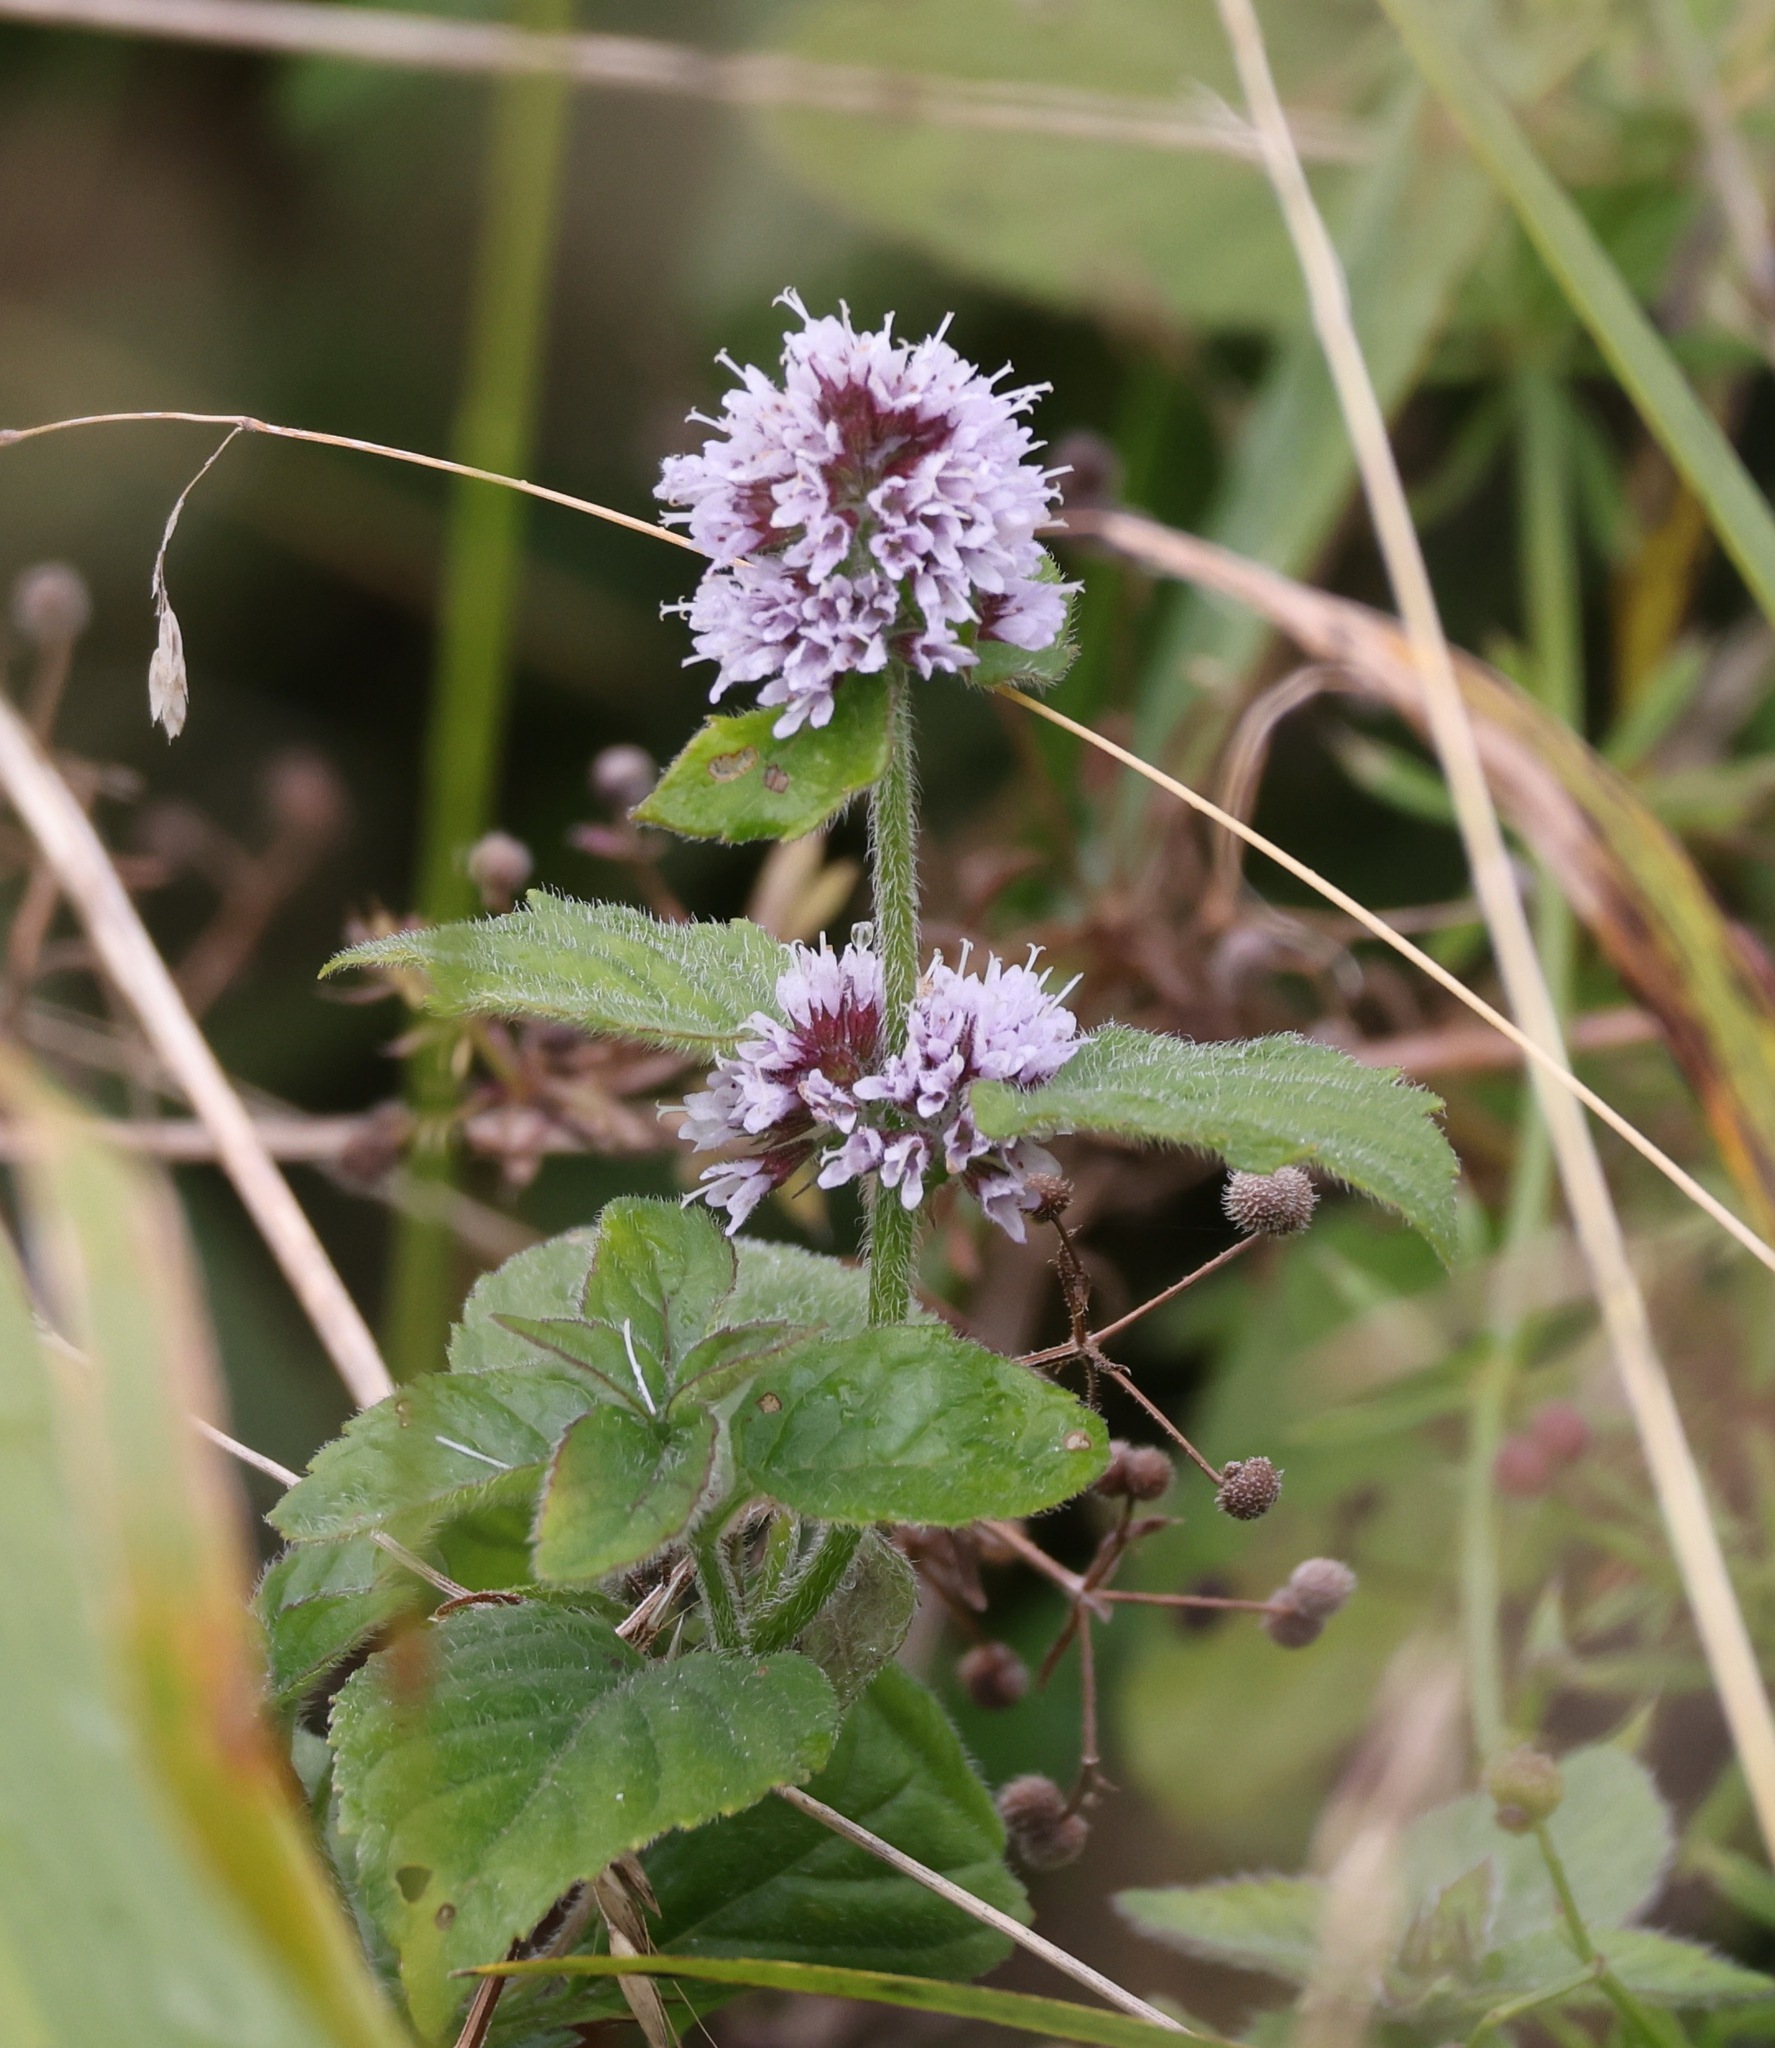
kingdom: Plantae
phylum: Tracheophyta
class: Magnoliopsida
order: Lamiales
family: Lamiaceae
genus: Mentha
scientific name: Mentha aquatica
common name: Water mint
